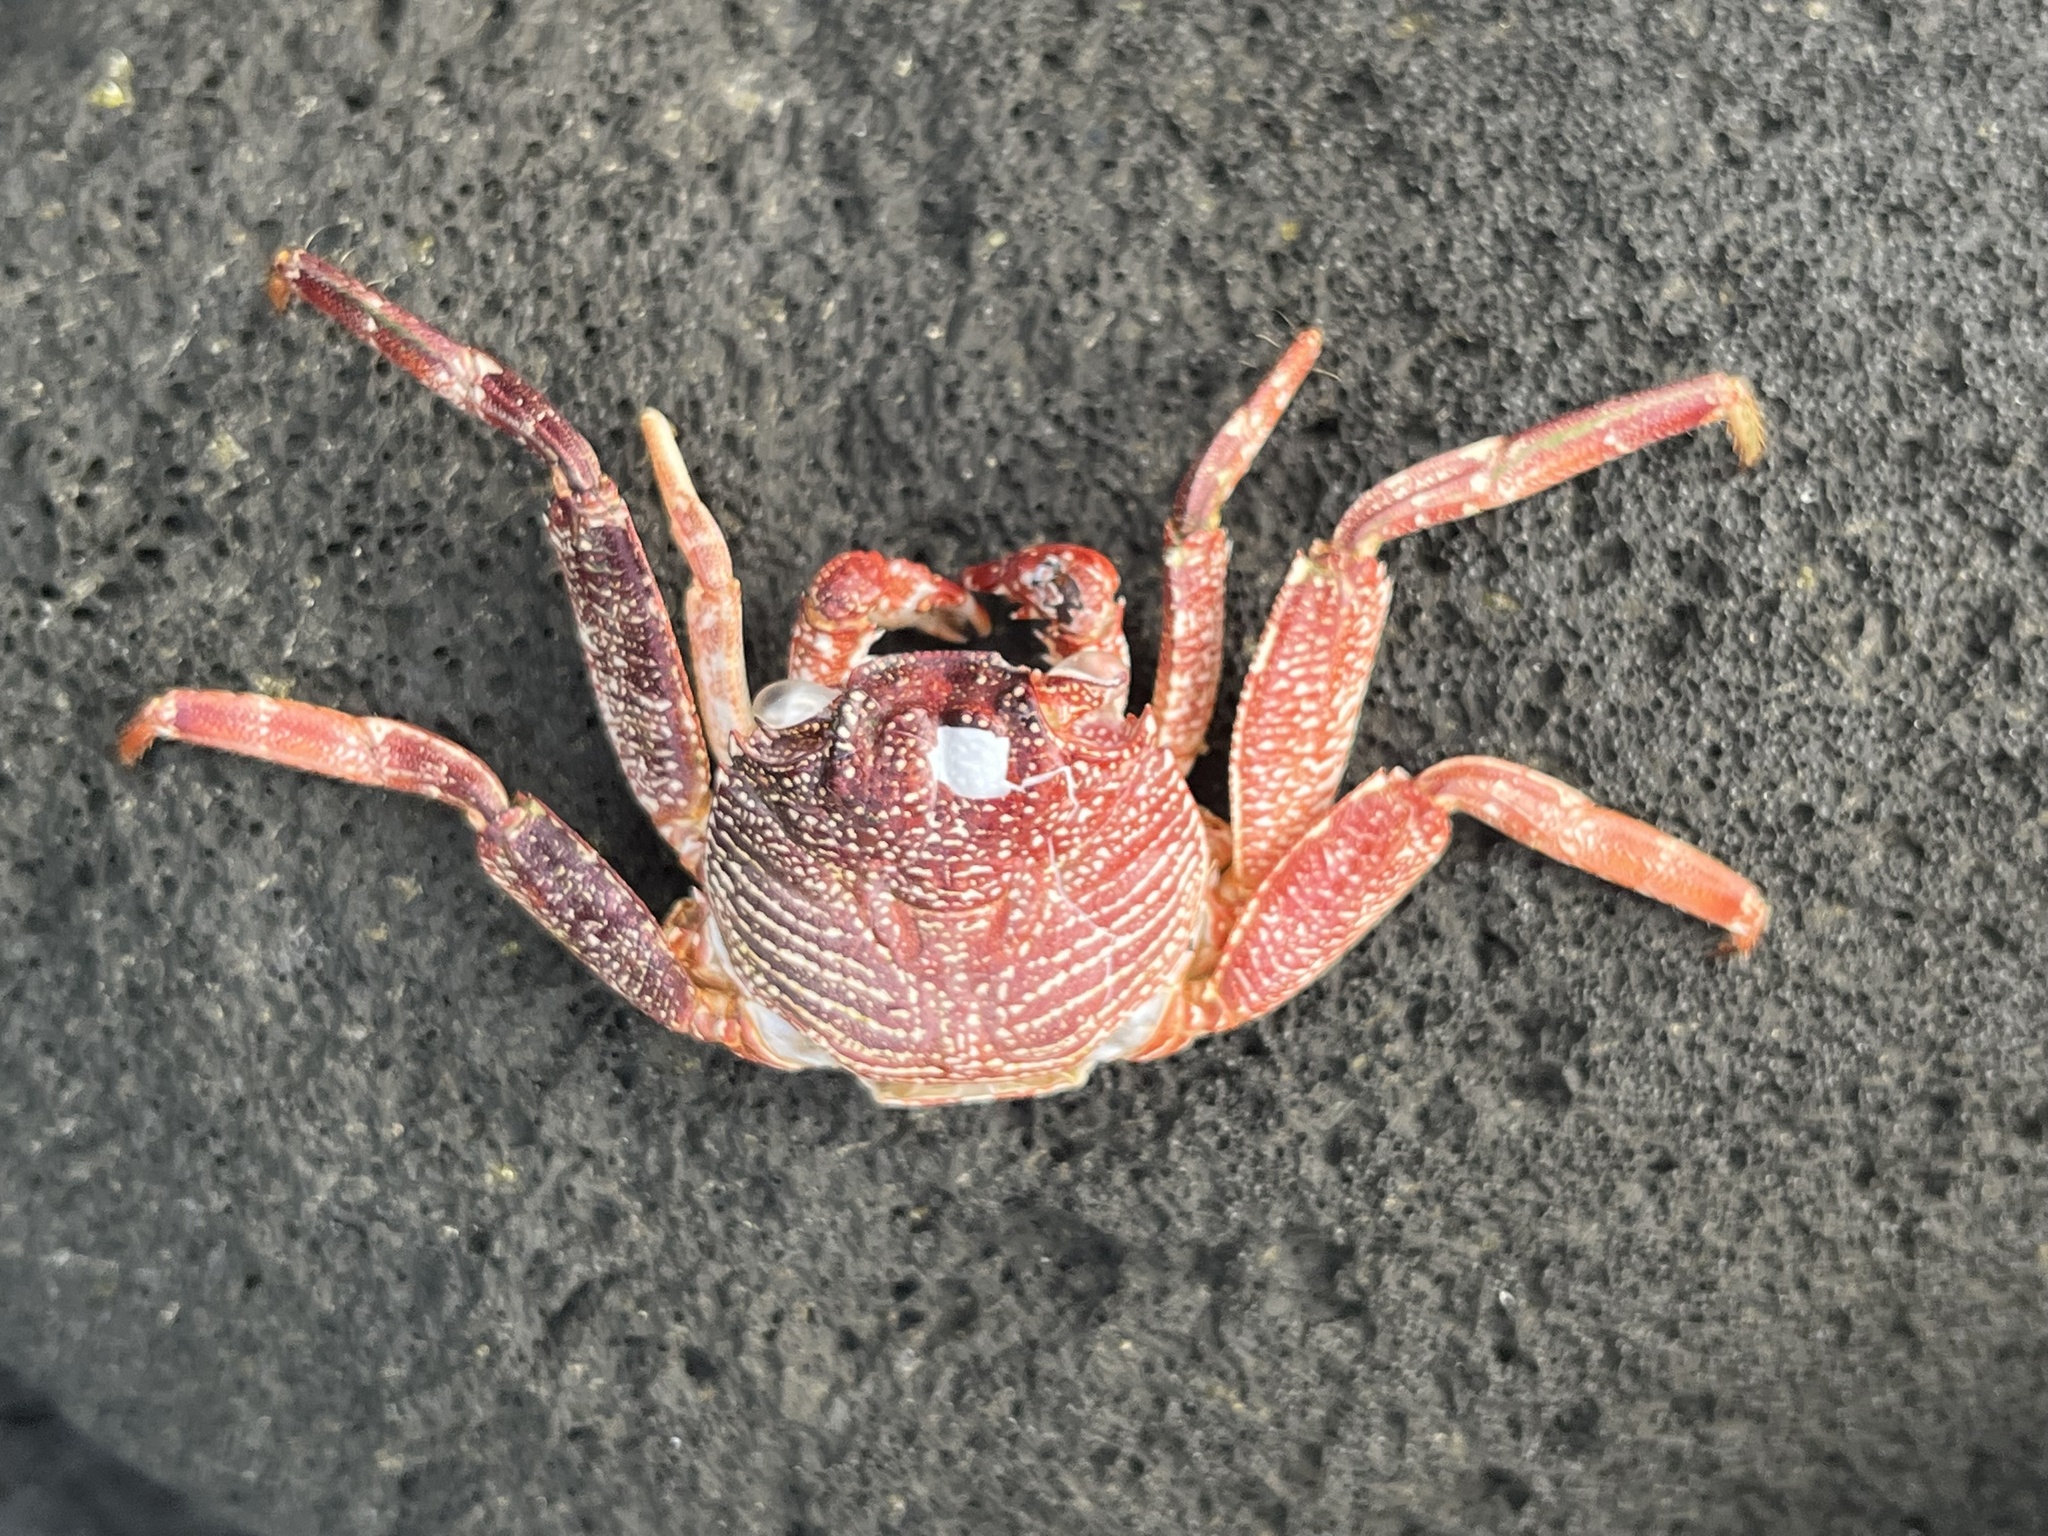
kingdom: Animalia
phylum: Arthropoda
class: Malacostraca
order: Decapoda
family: Grapsidae
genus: Grapsus
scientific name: Grapsus tenuicrustatus
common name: Natal lightfoot crab
